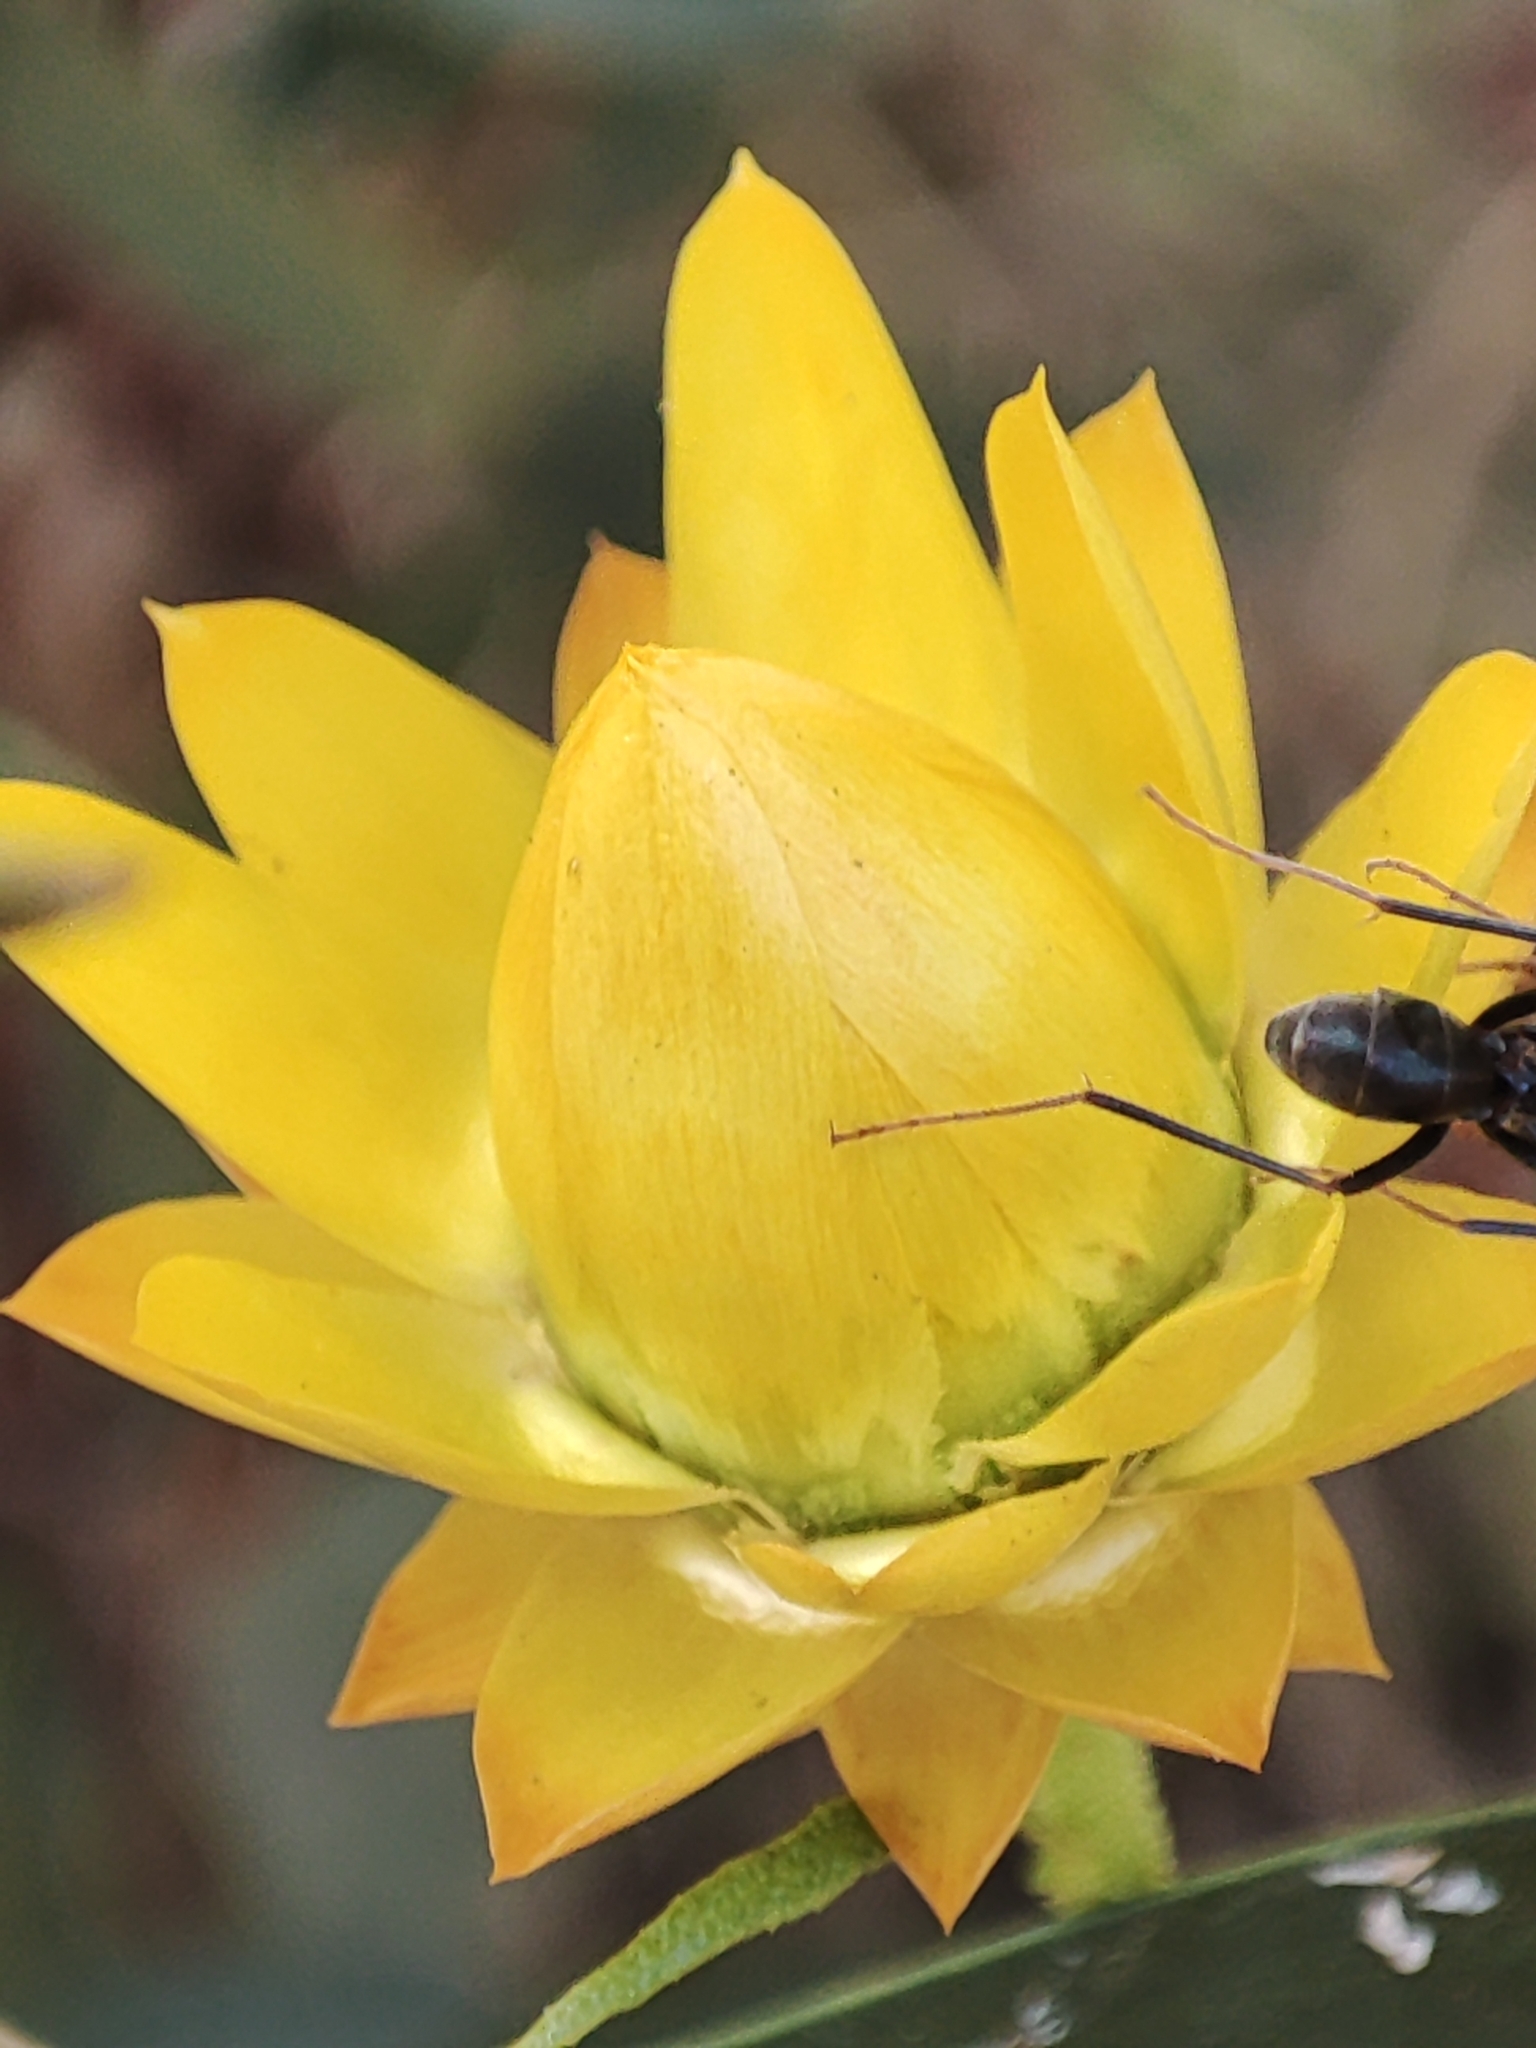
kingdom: Plantae
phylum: Tracheophyta
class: Magnoliopsida
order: Asterales
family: Asteraceae
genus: Xerochrysum
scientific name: Xerochrysum viscosum
